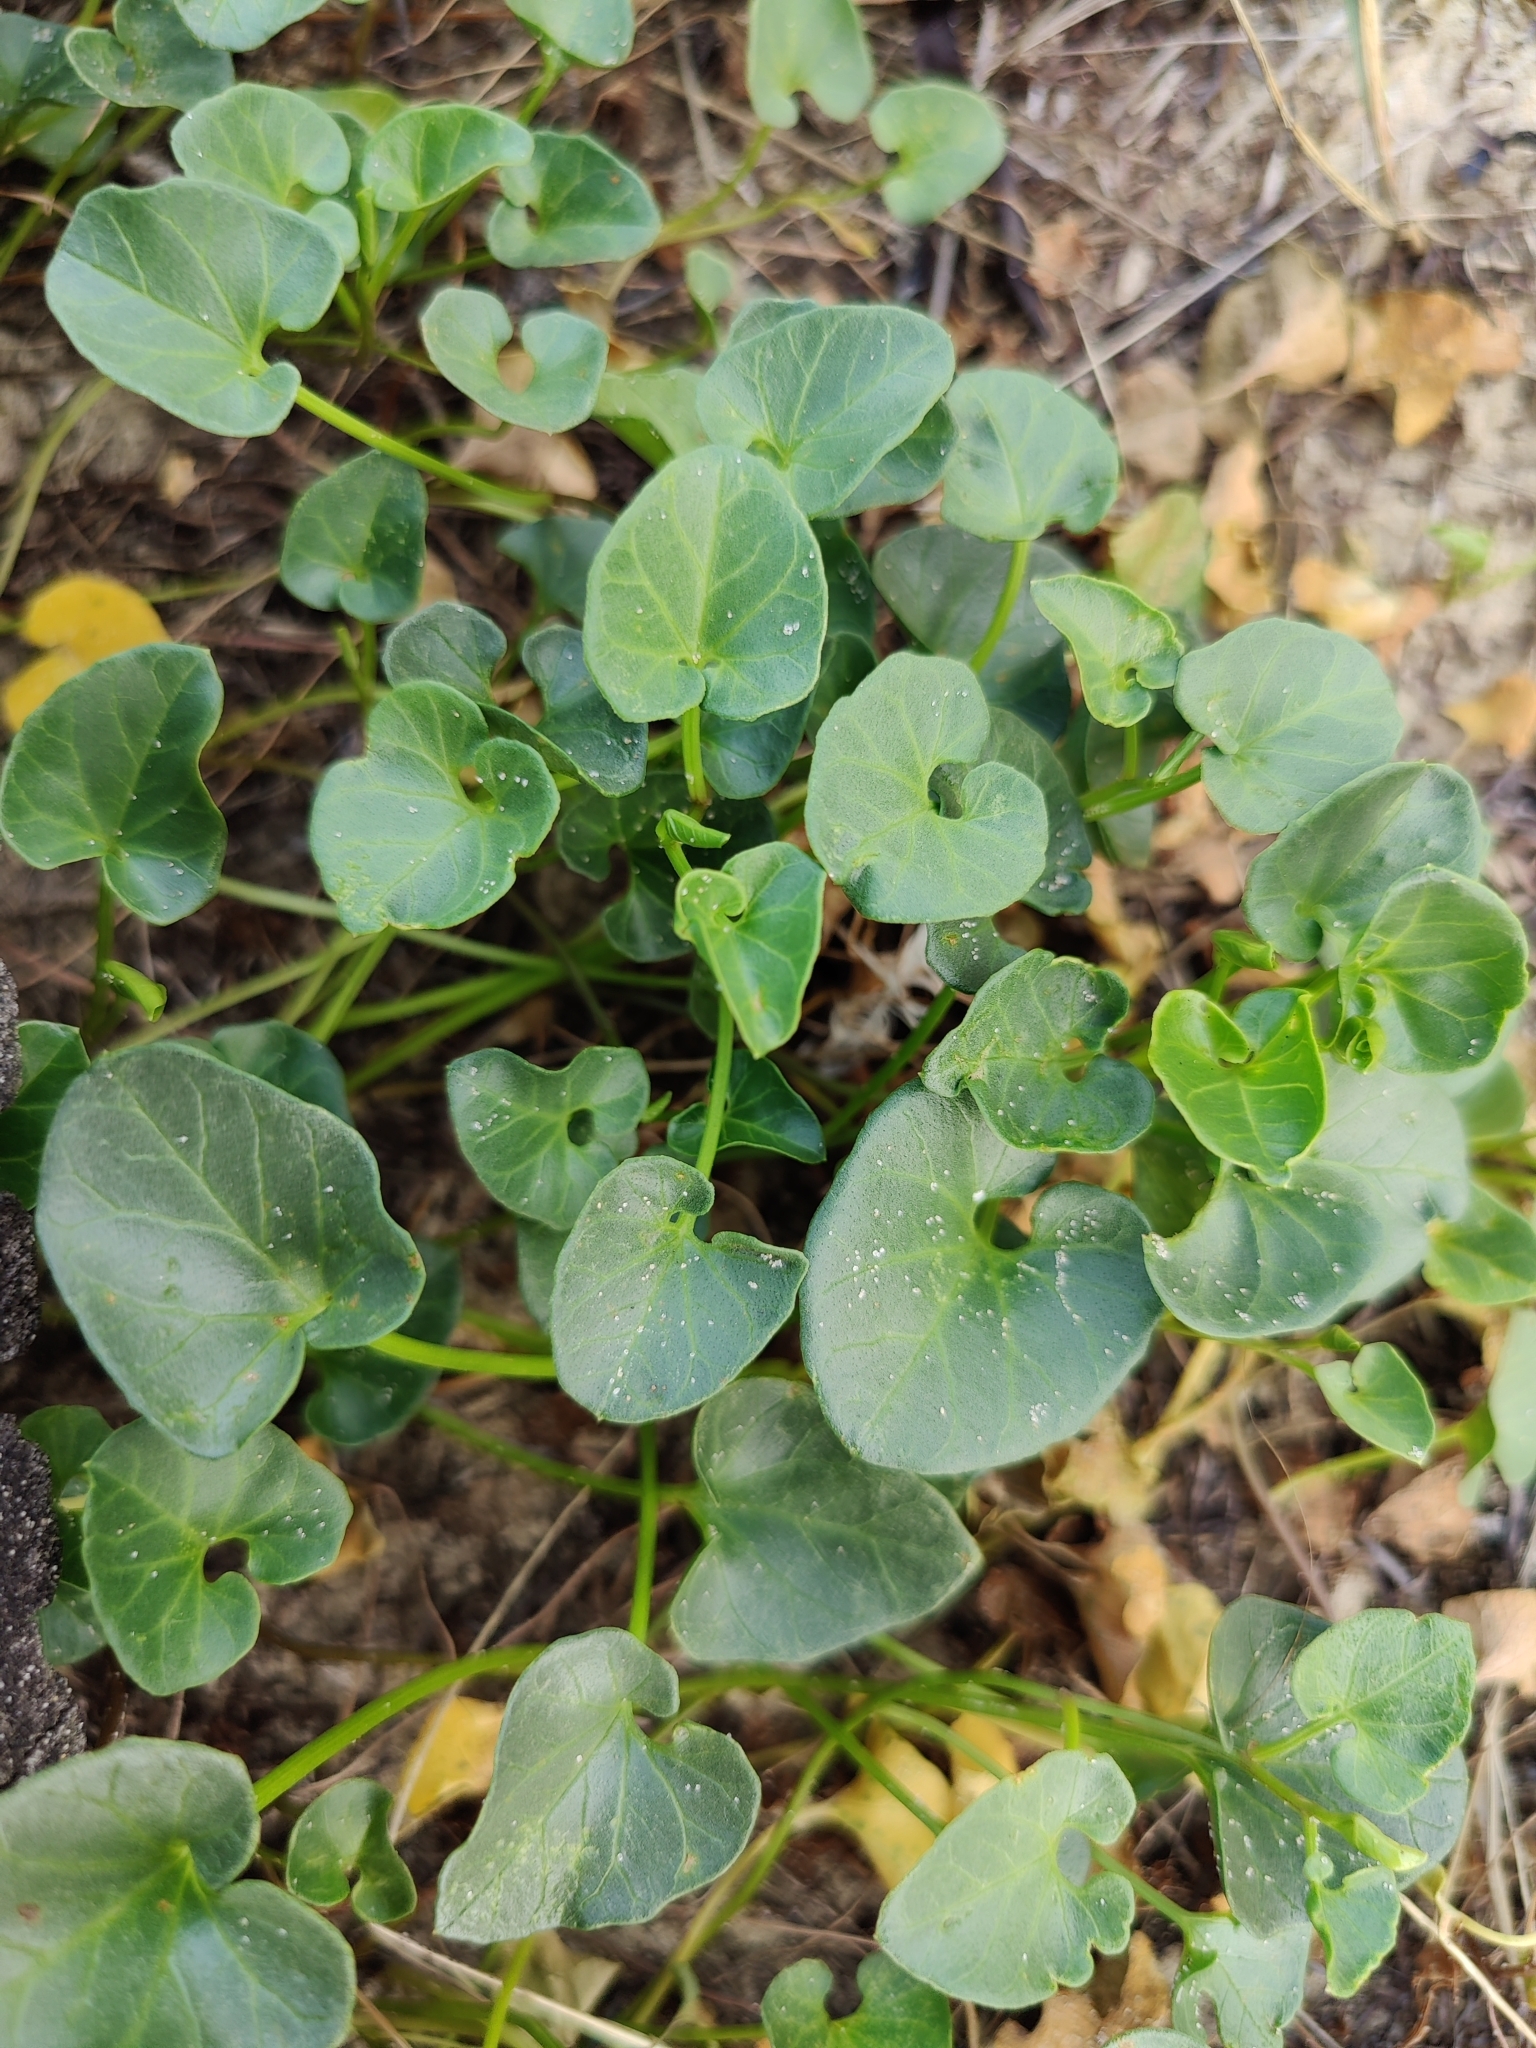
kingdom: Plantae
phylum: Tracheophyta
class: Magnoliopsida
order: Solanales
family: Convolvulaceae
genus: Calystegia
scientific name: Calystegia soldanella
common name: Sea bindweed
